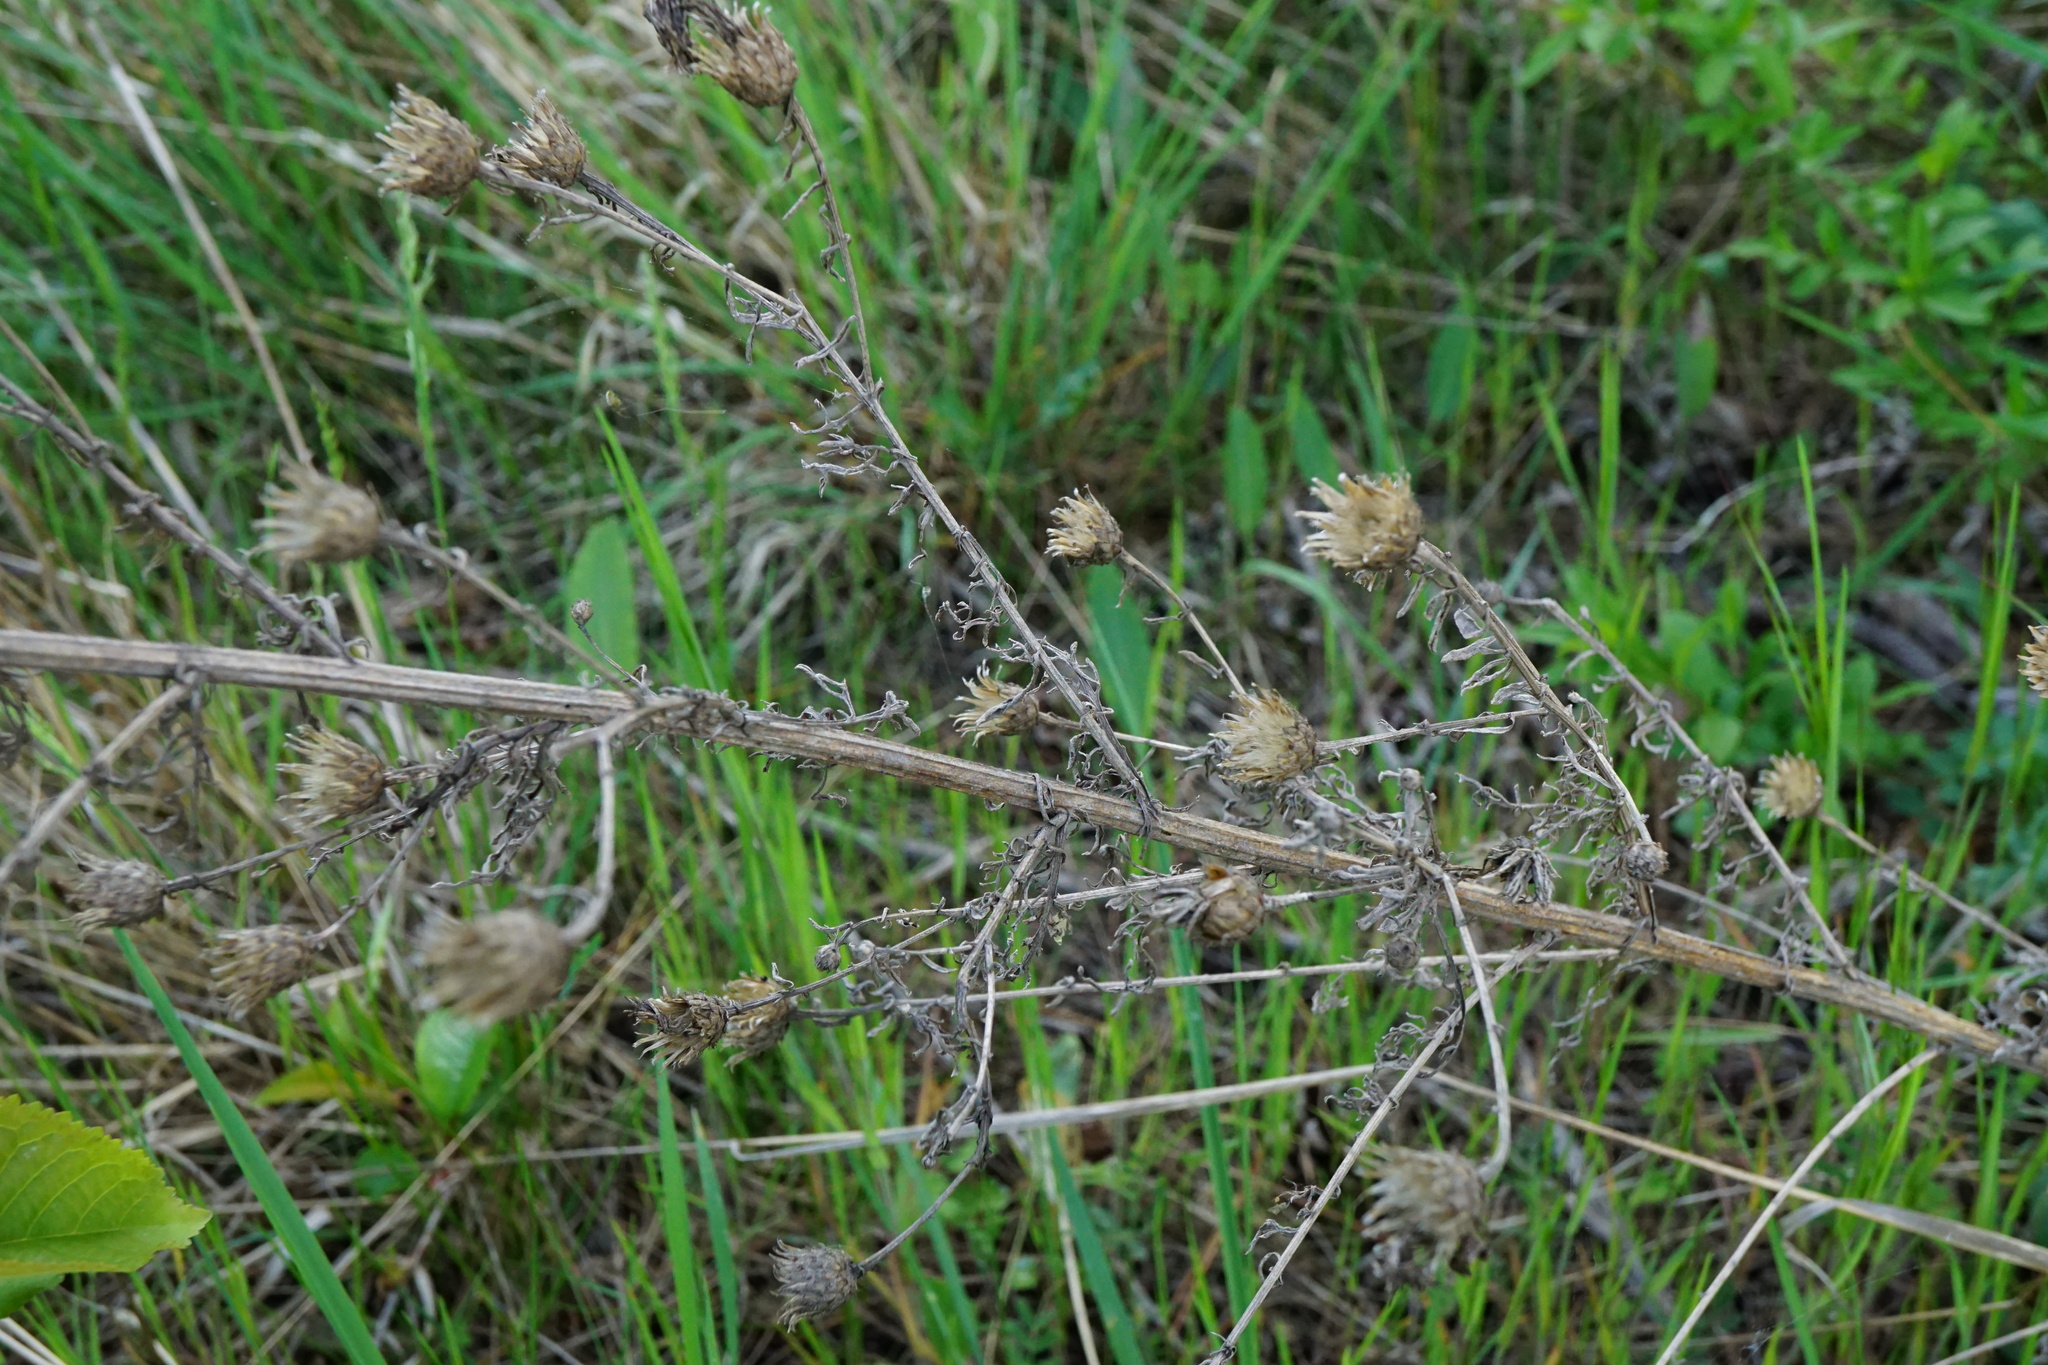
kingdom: Plantae
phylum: Tracheophyta
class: Magnoliopsida
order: Asterales
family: Asteraceae
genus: Centaurea
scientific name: Centaurea stoebe
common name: Spotted knapweed
